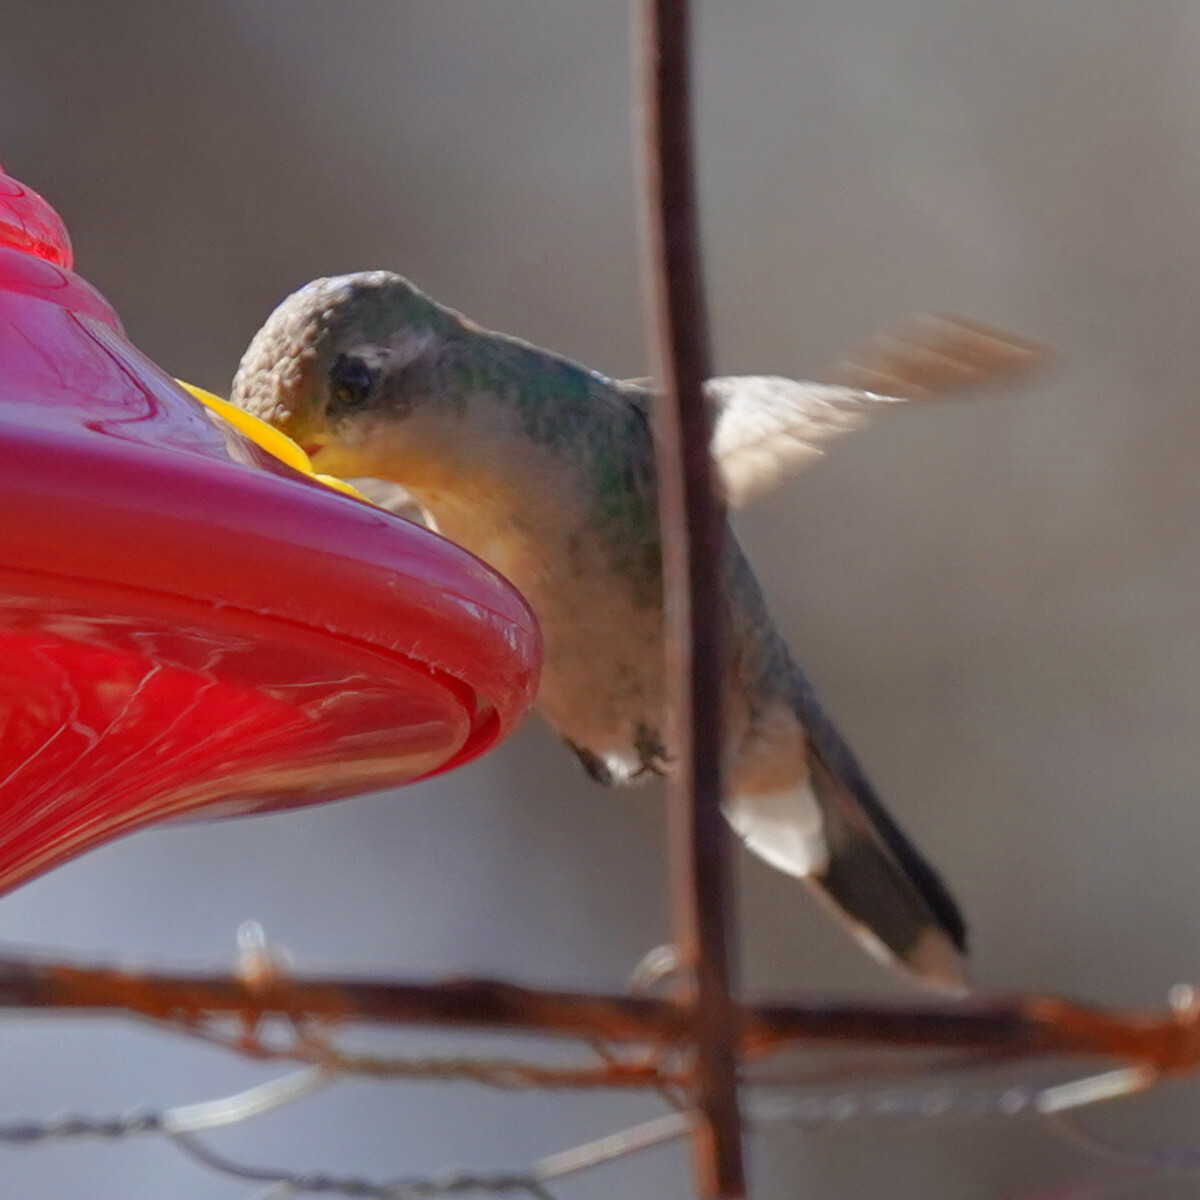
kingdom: Animalia
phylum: Chordata
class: Aves
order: Apodiformes
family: Trochilidae
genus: Cynanthus
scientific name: Cynanthus latirostris
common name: Broad-billed hummingbird
